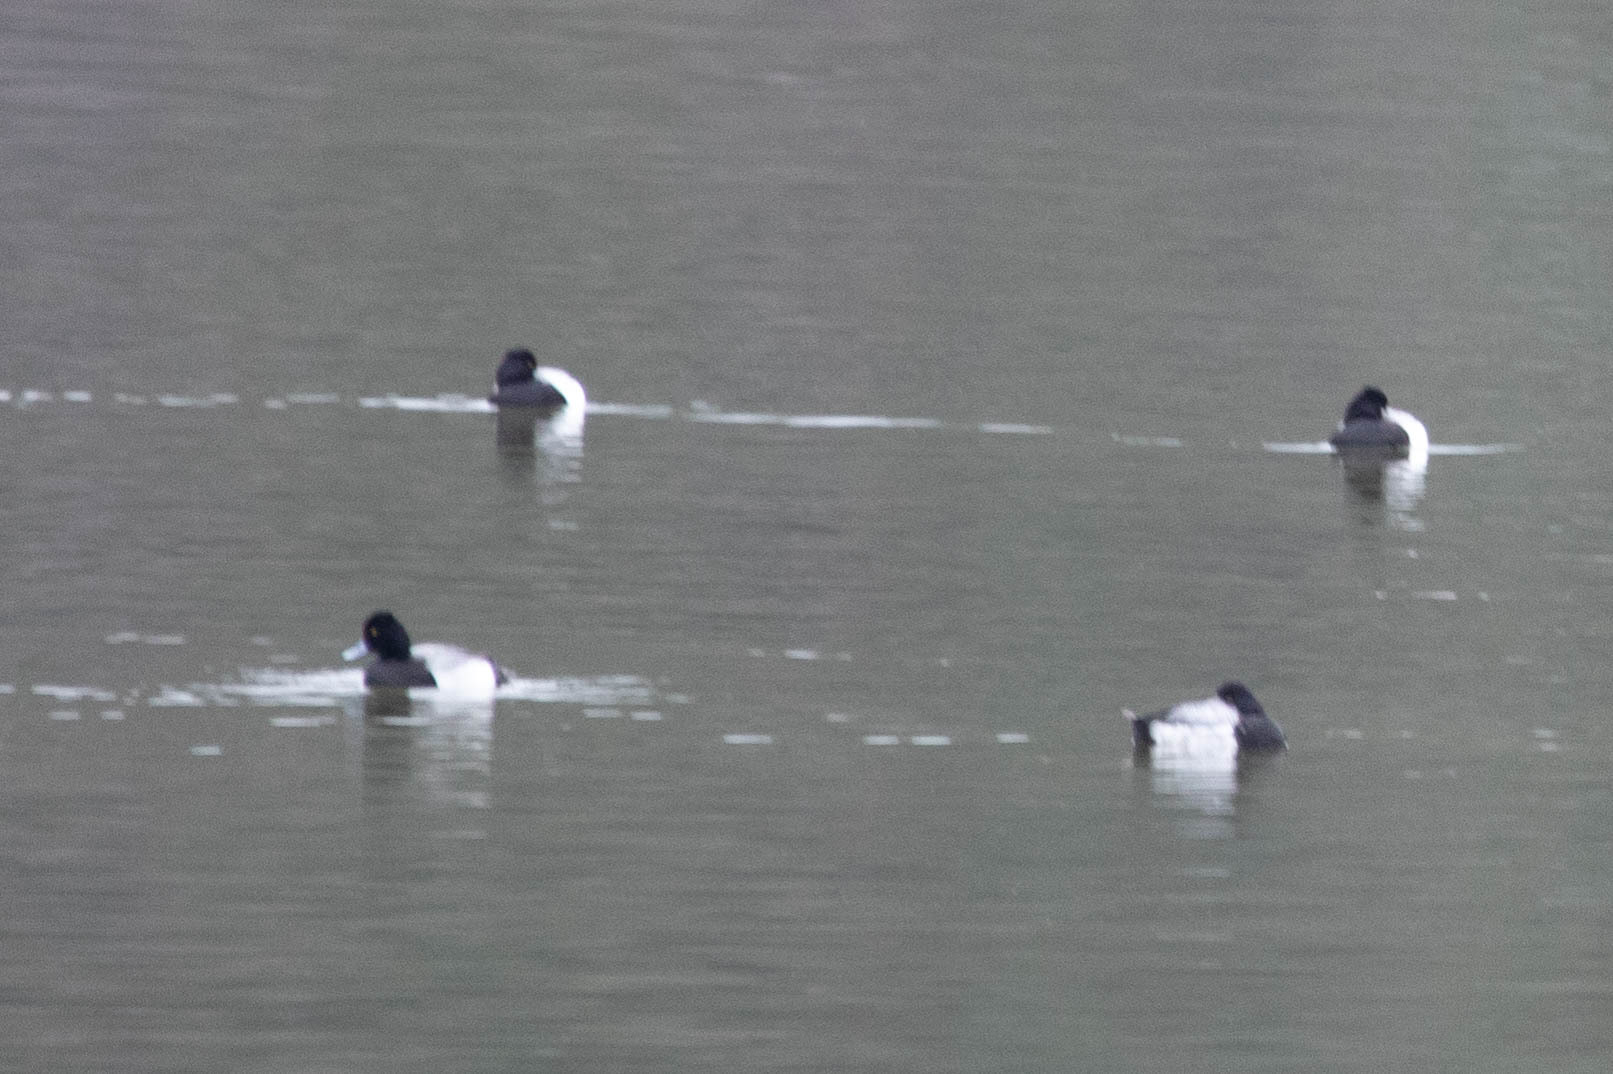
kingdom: Animalia
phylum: Chordata
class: Aves
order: Anseriformes
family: Anatidae
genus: Aythya
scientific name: Aythya affinis
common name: Lesser scaup
